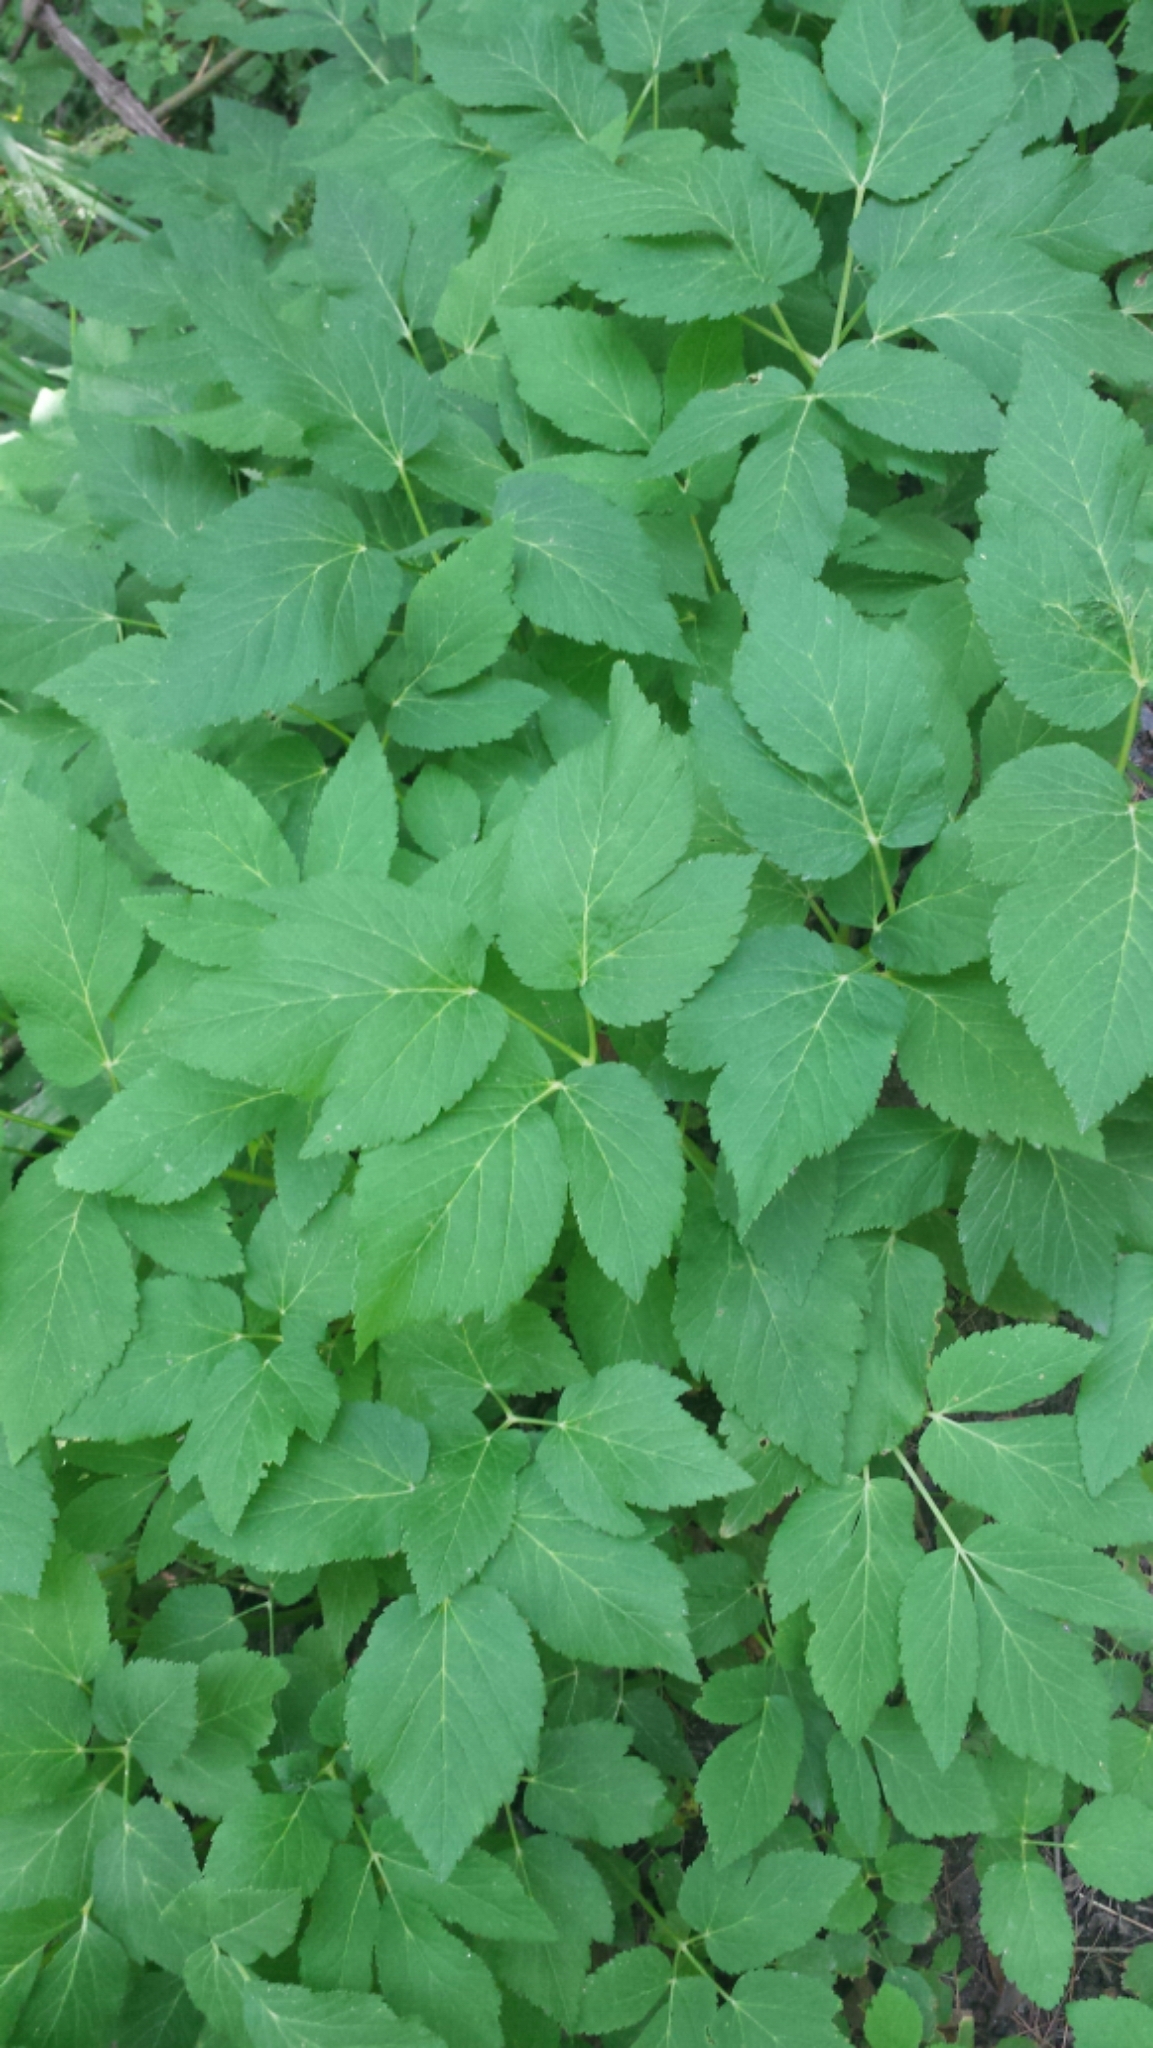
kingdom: Plantae
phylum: Tracheophyta
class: Magnoliopsida
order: Apiales
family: Apiaceae
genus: Aegopodium
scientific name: Aegopodium podagraria
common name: Ground-elder
